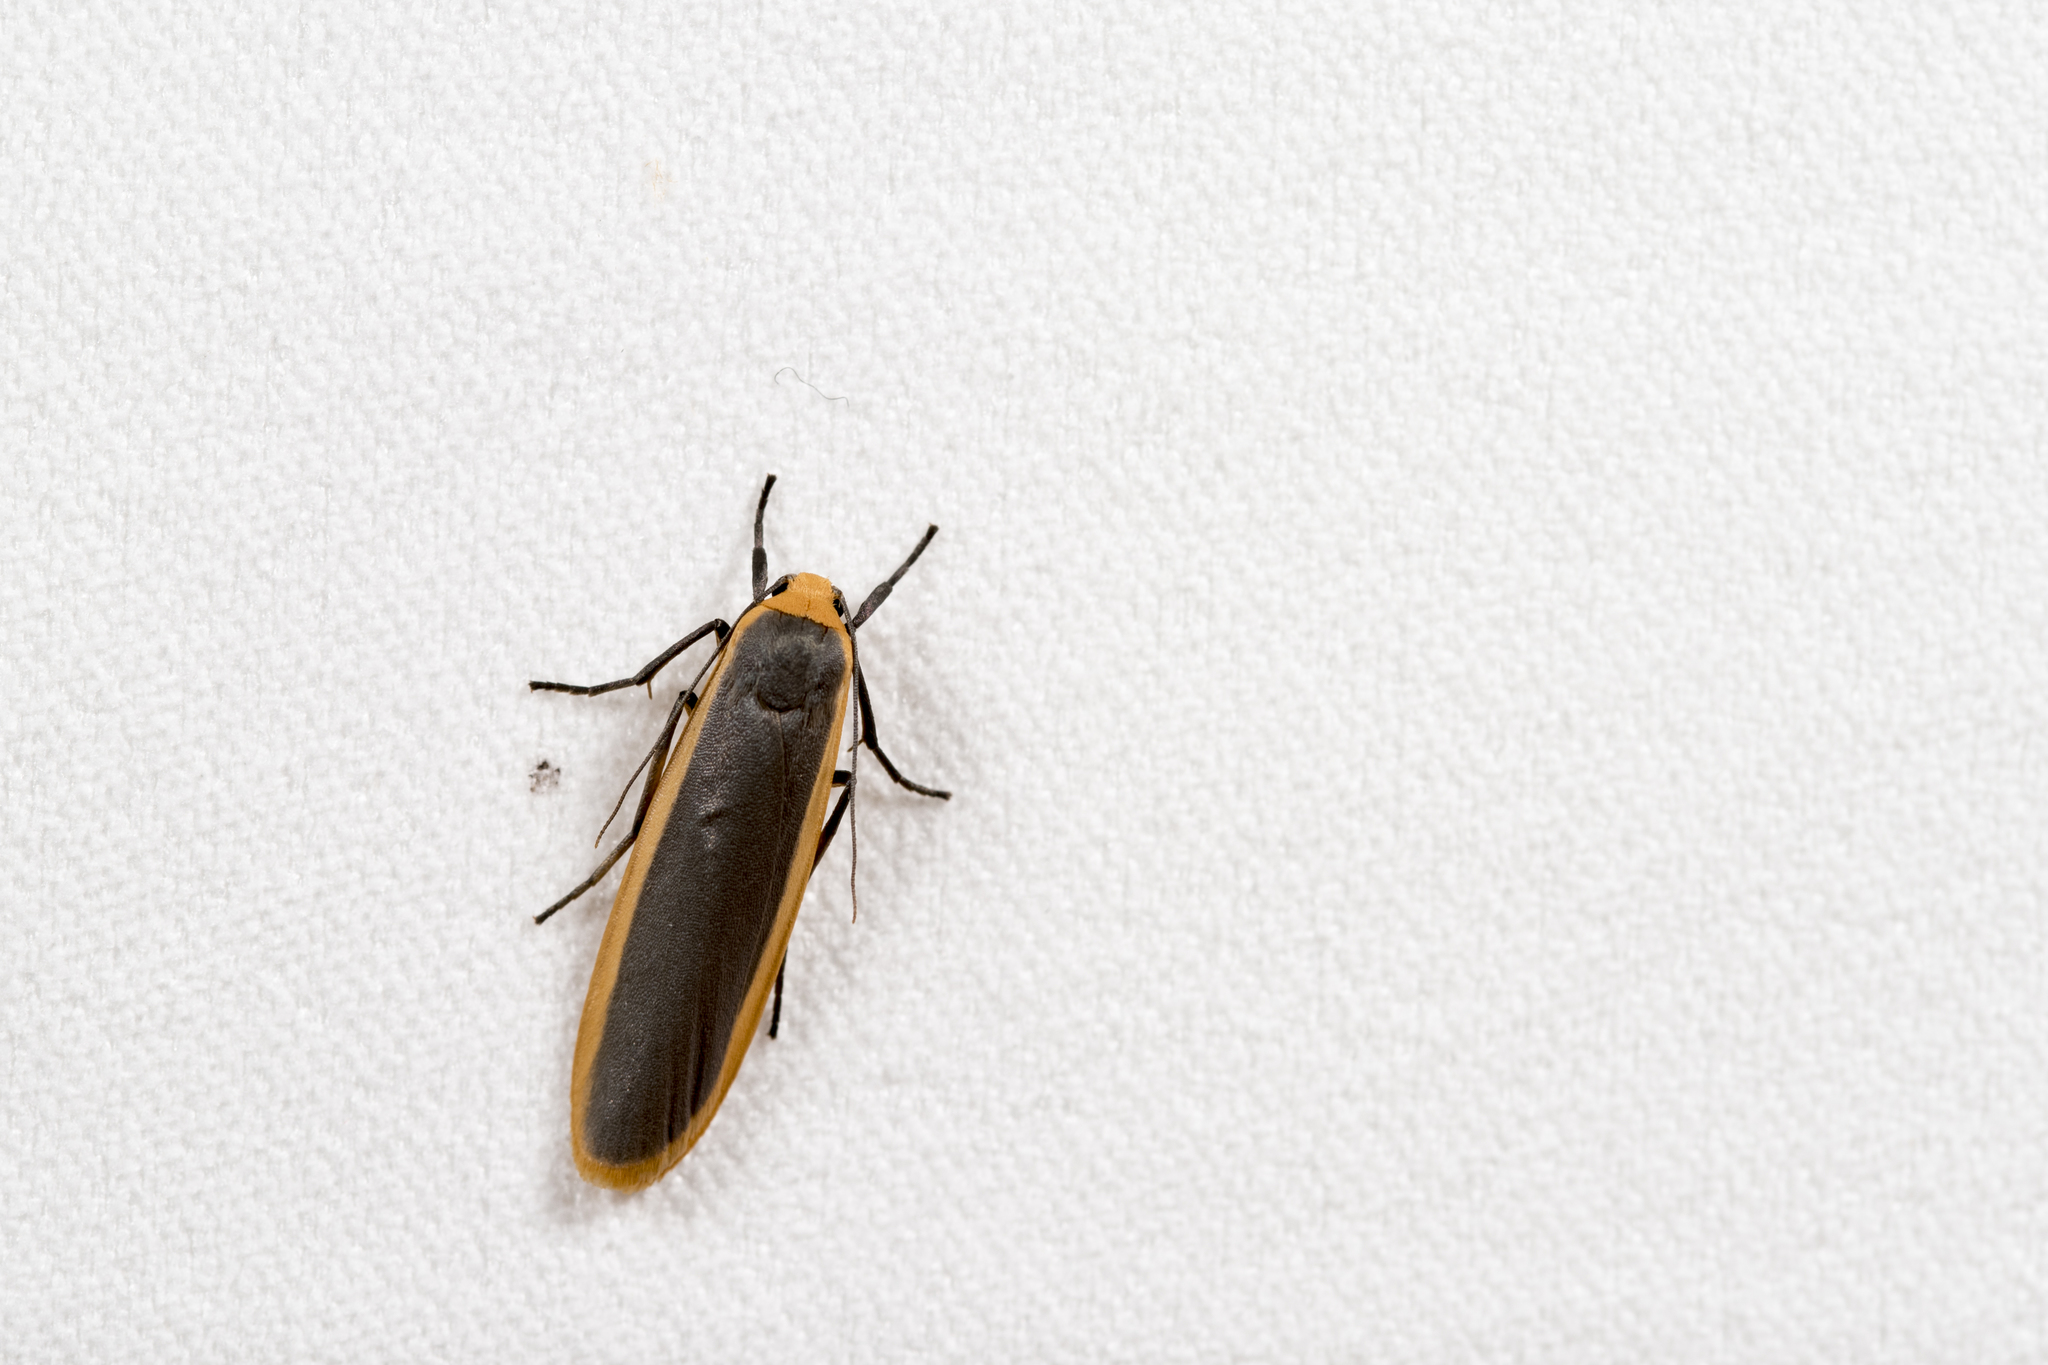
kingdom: Animalia
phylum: Arthropoda
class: Insecta
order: Lepidoptera
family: Erebidae
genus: Brunia
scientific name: Brunia antica
